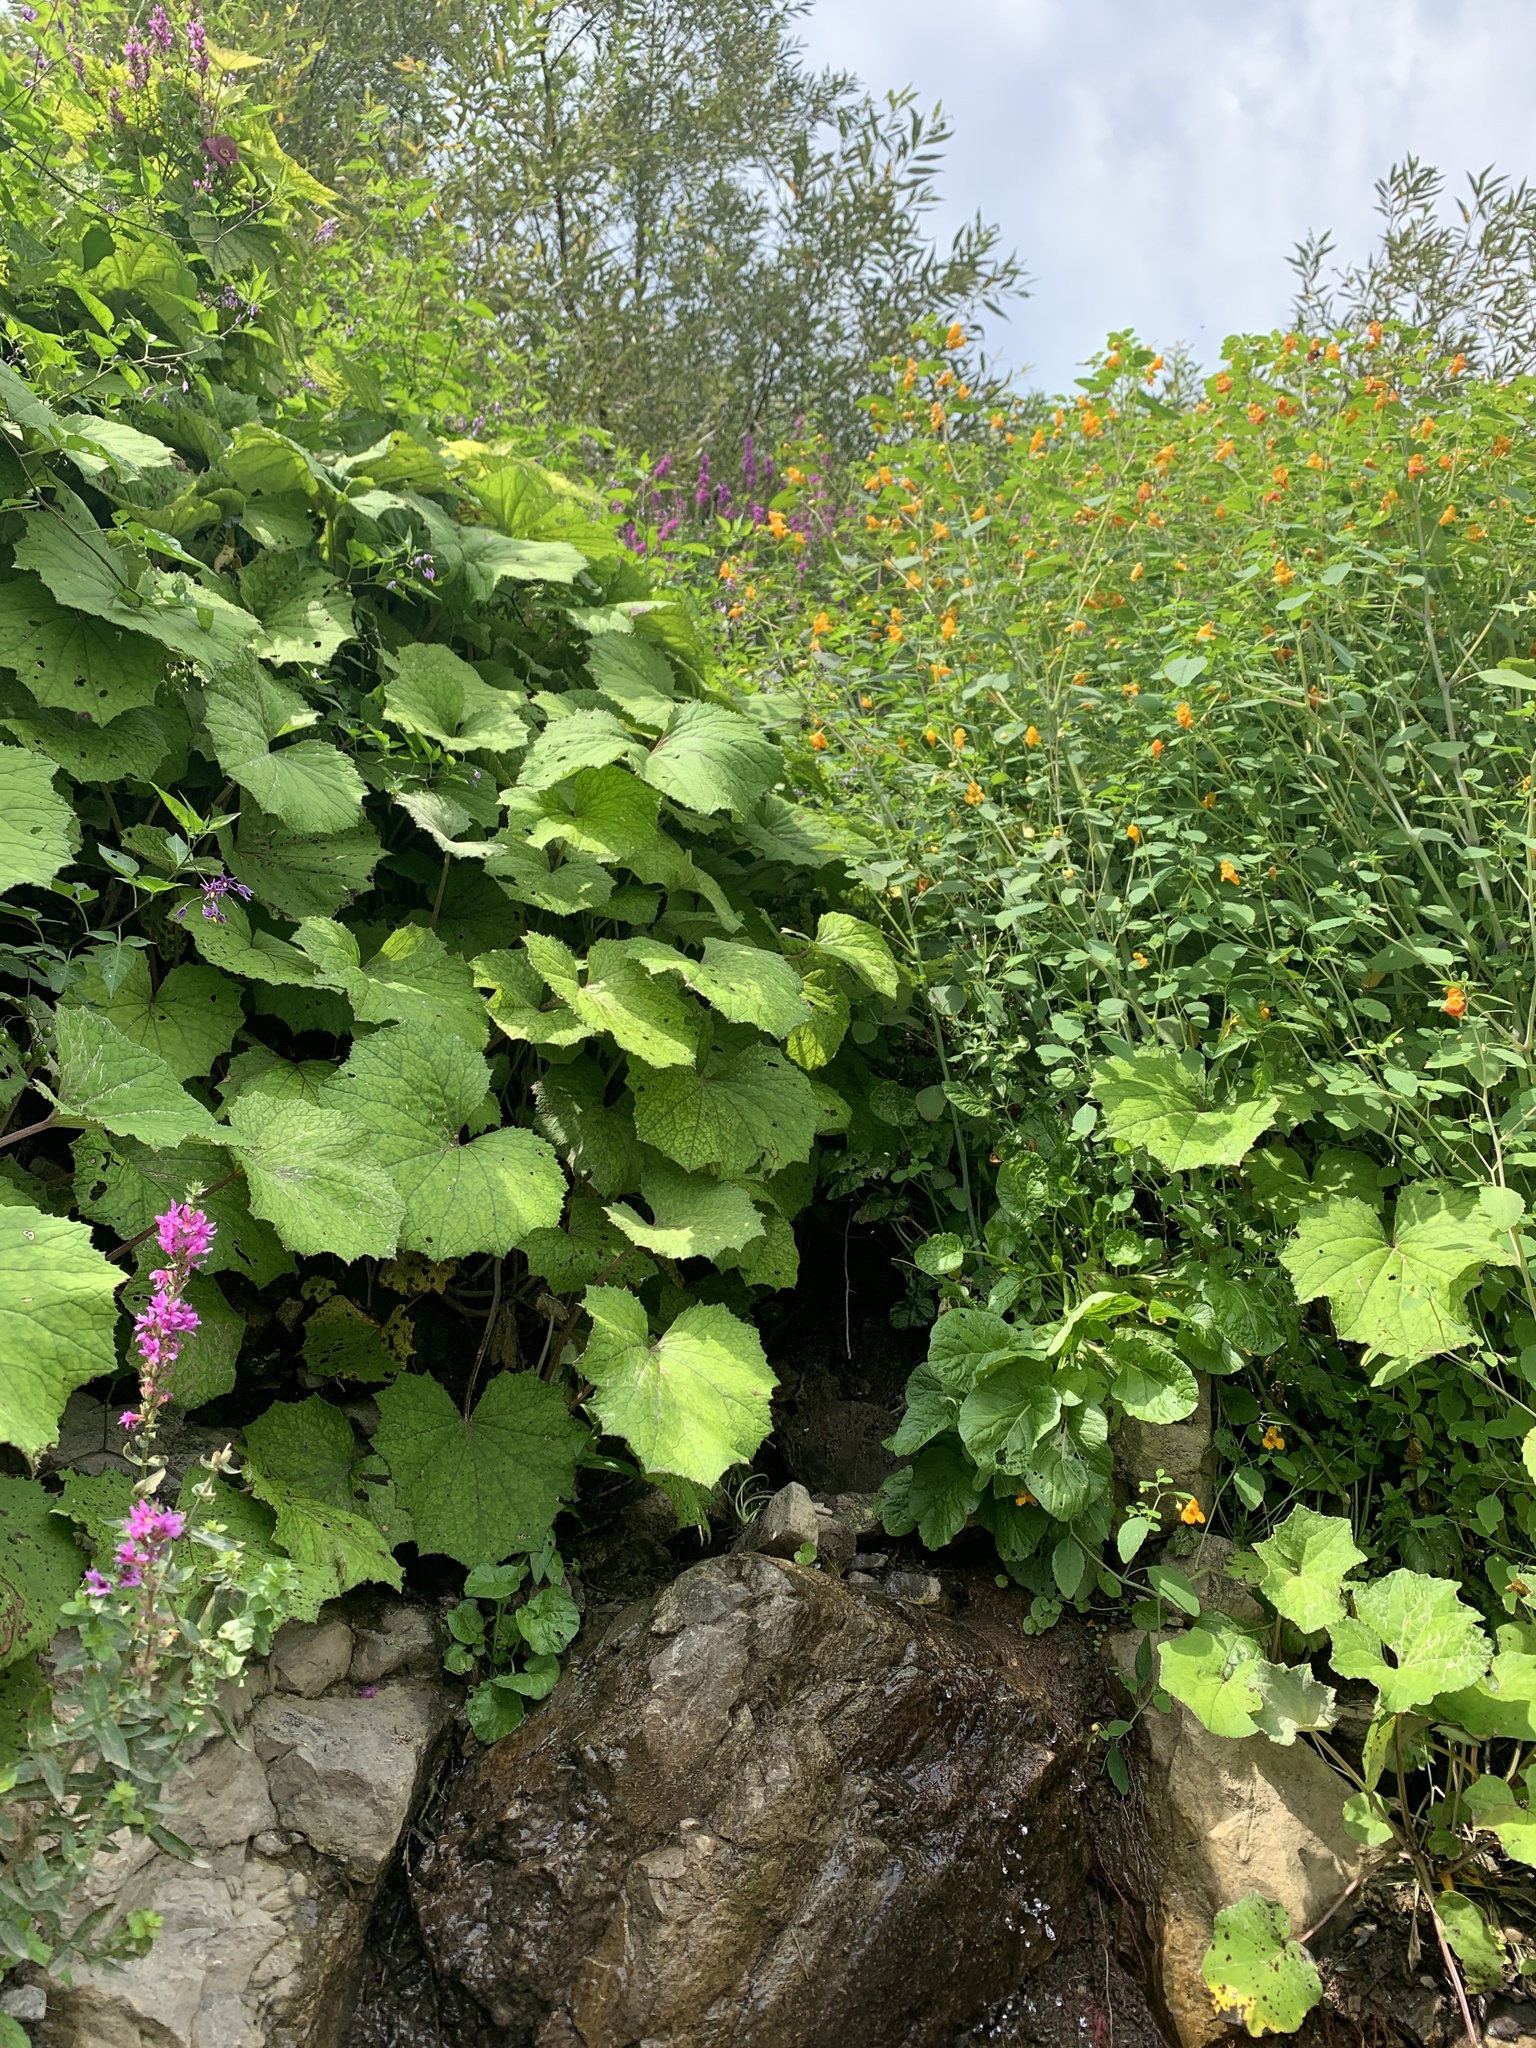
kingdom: Plantae
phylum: Tracheophyta
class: Magnoliopsida
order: Ericales
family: Balsaminaceae
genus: Impatiens
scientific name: Impatiens capensis
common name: Orange balsam
